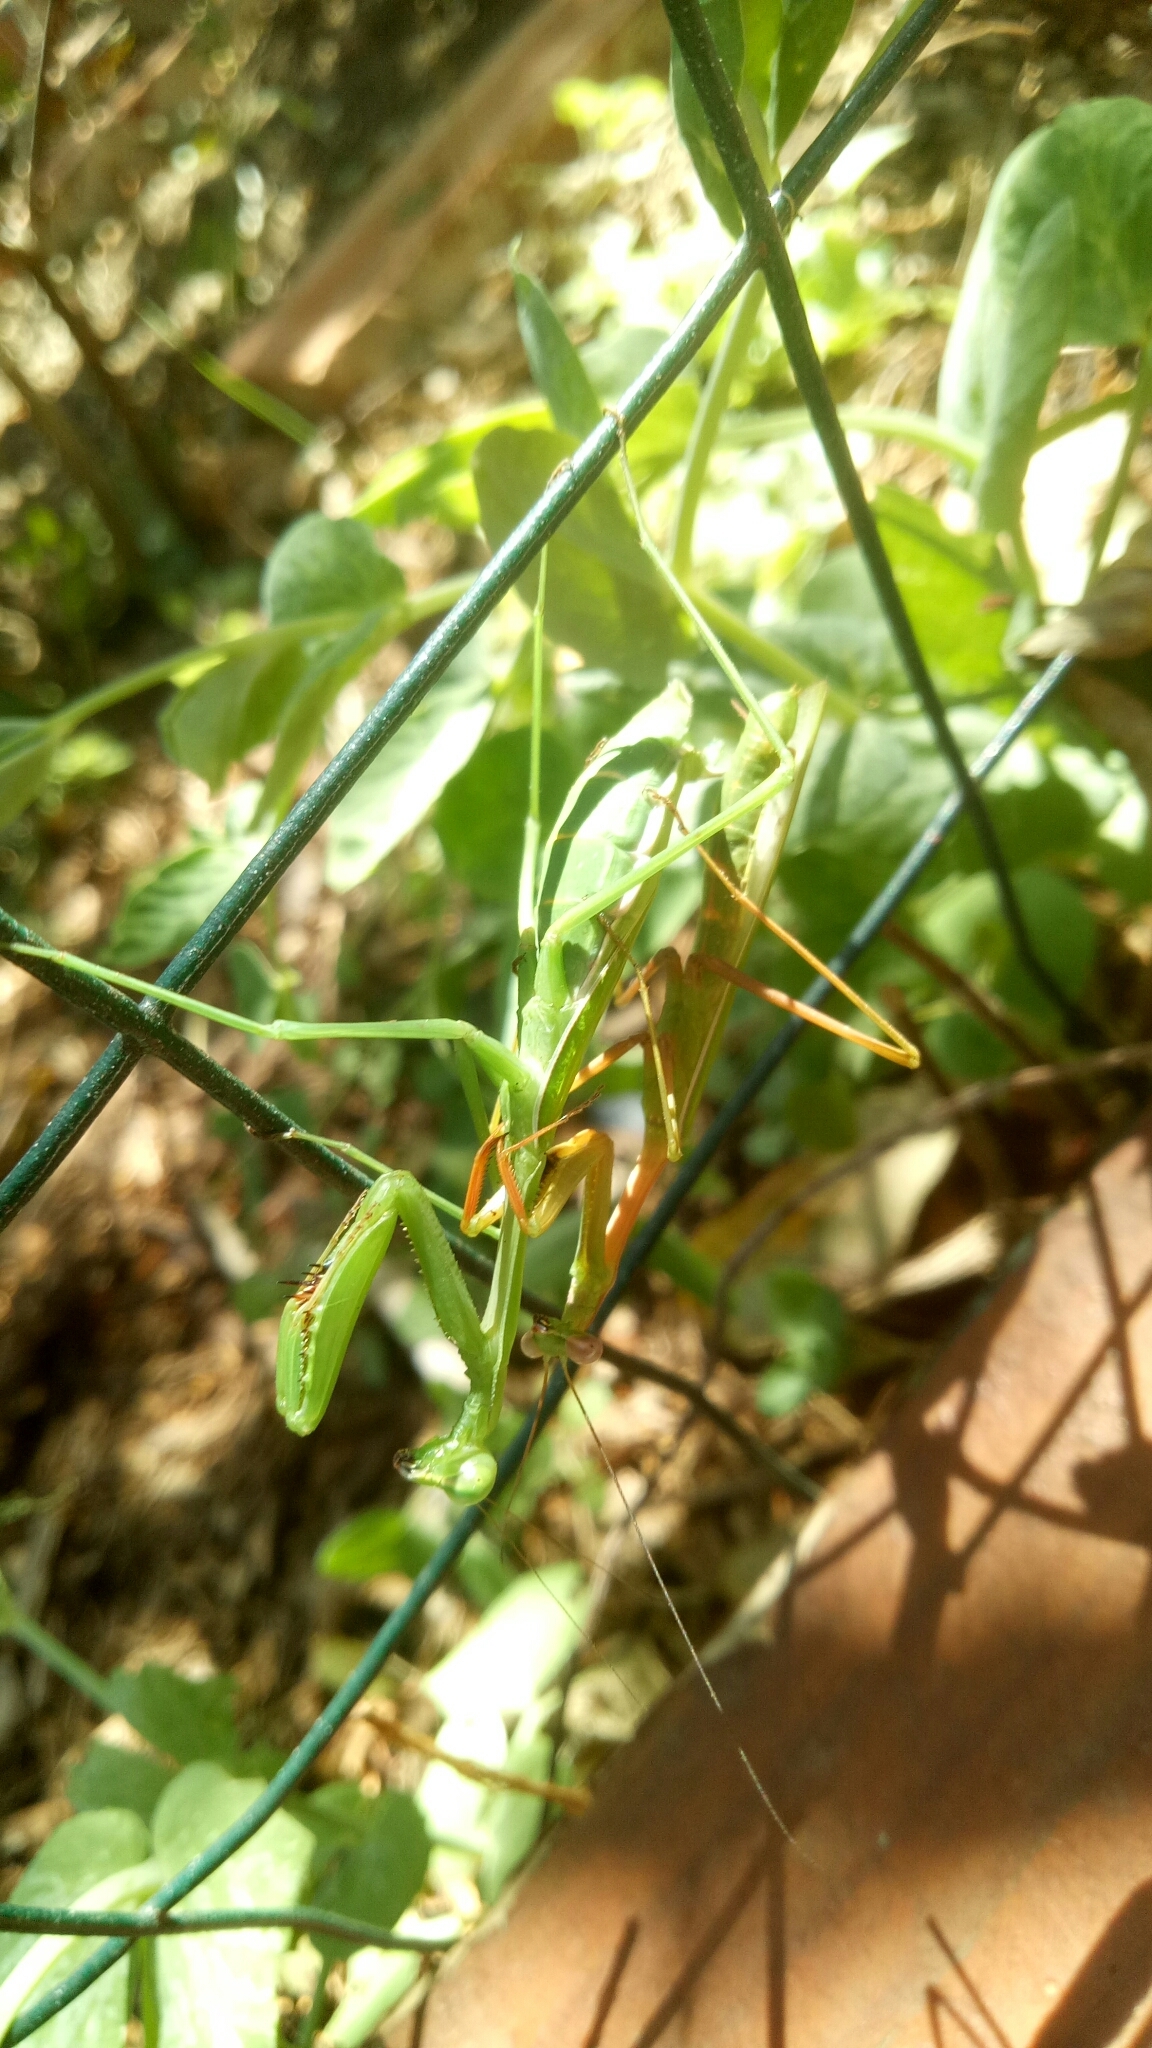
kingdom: Animalia
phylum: Arthropoda
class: Insecta
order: Mantodea
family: Mantidae
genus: Pseudomantis
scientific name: Pseudomantis albofimbriata
